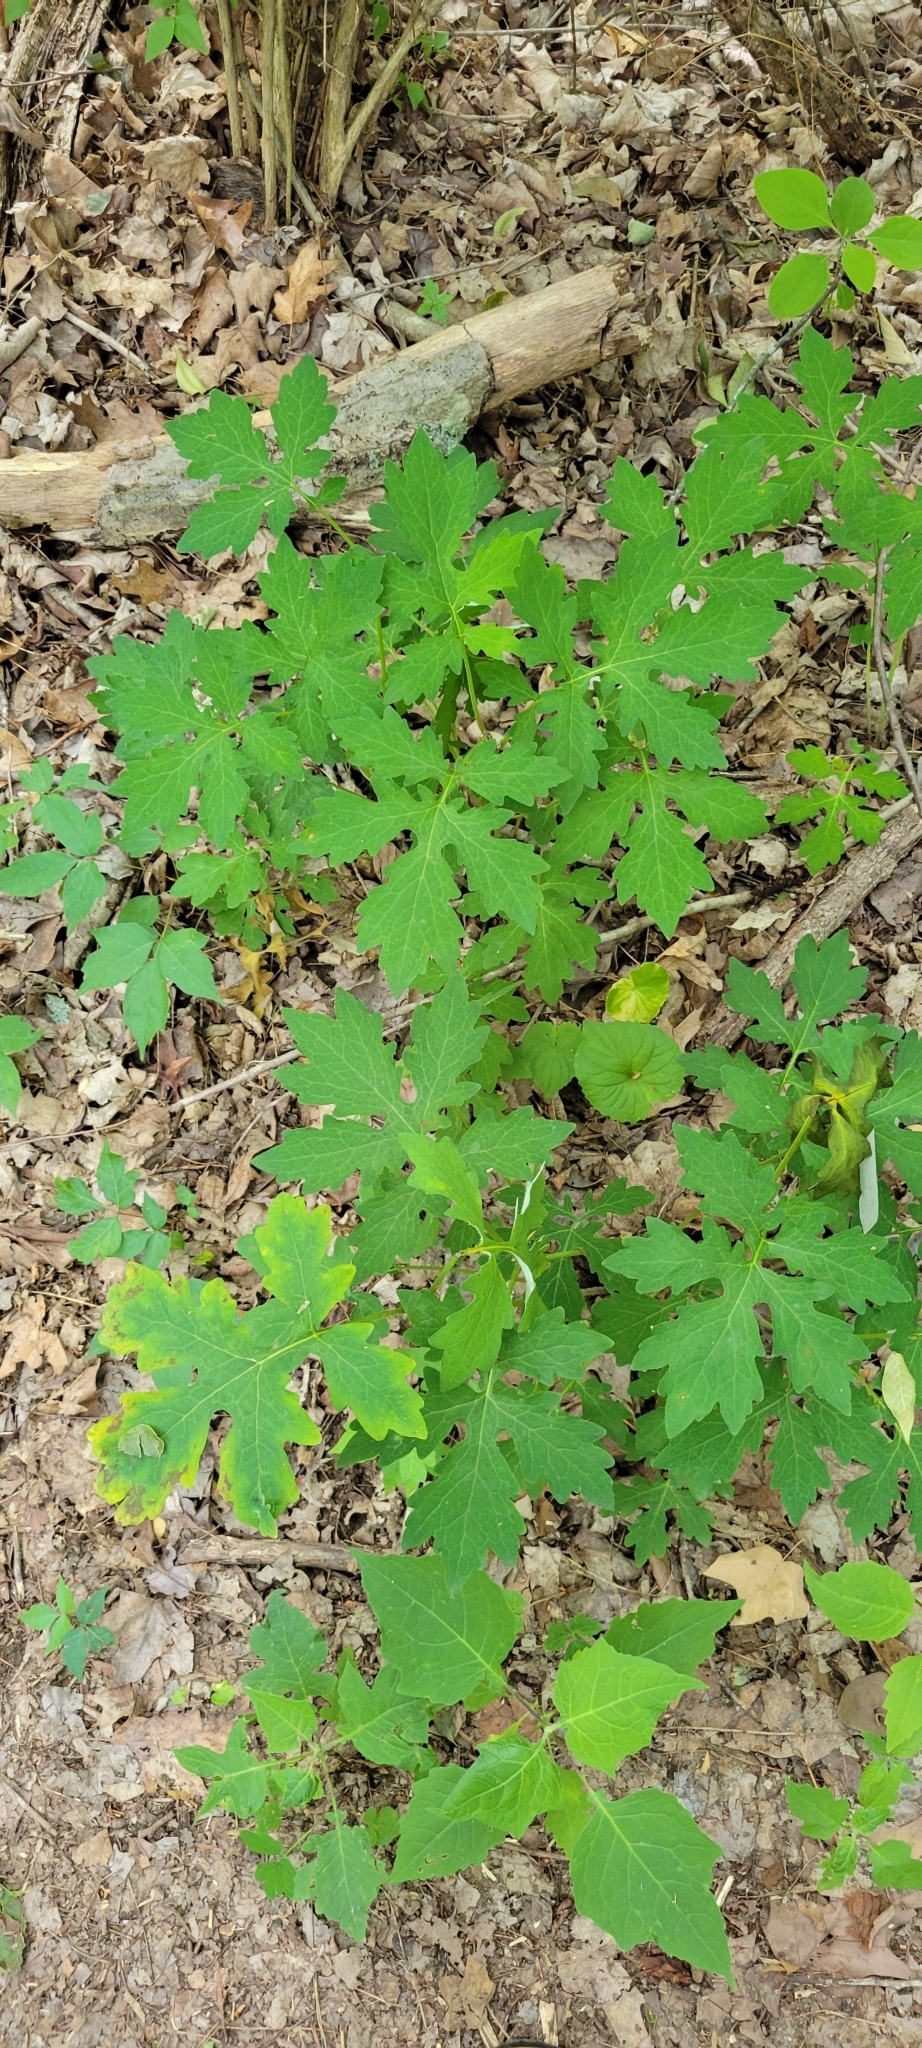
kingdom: Plantae
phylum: Tracheophyta
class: Magnoliopsida
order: Ranunculales
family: Papaveraceae
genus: Stylophorum
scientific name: Stylophorum diphyllum
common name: Celandine poppy
